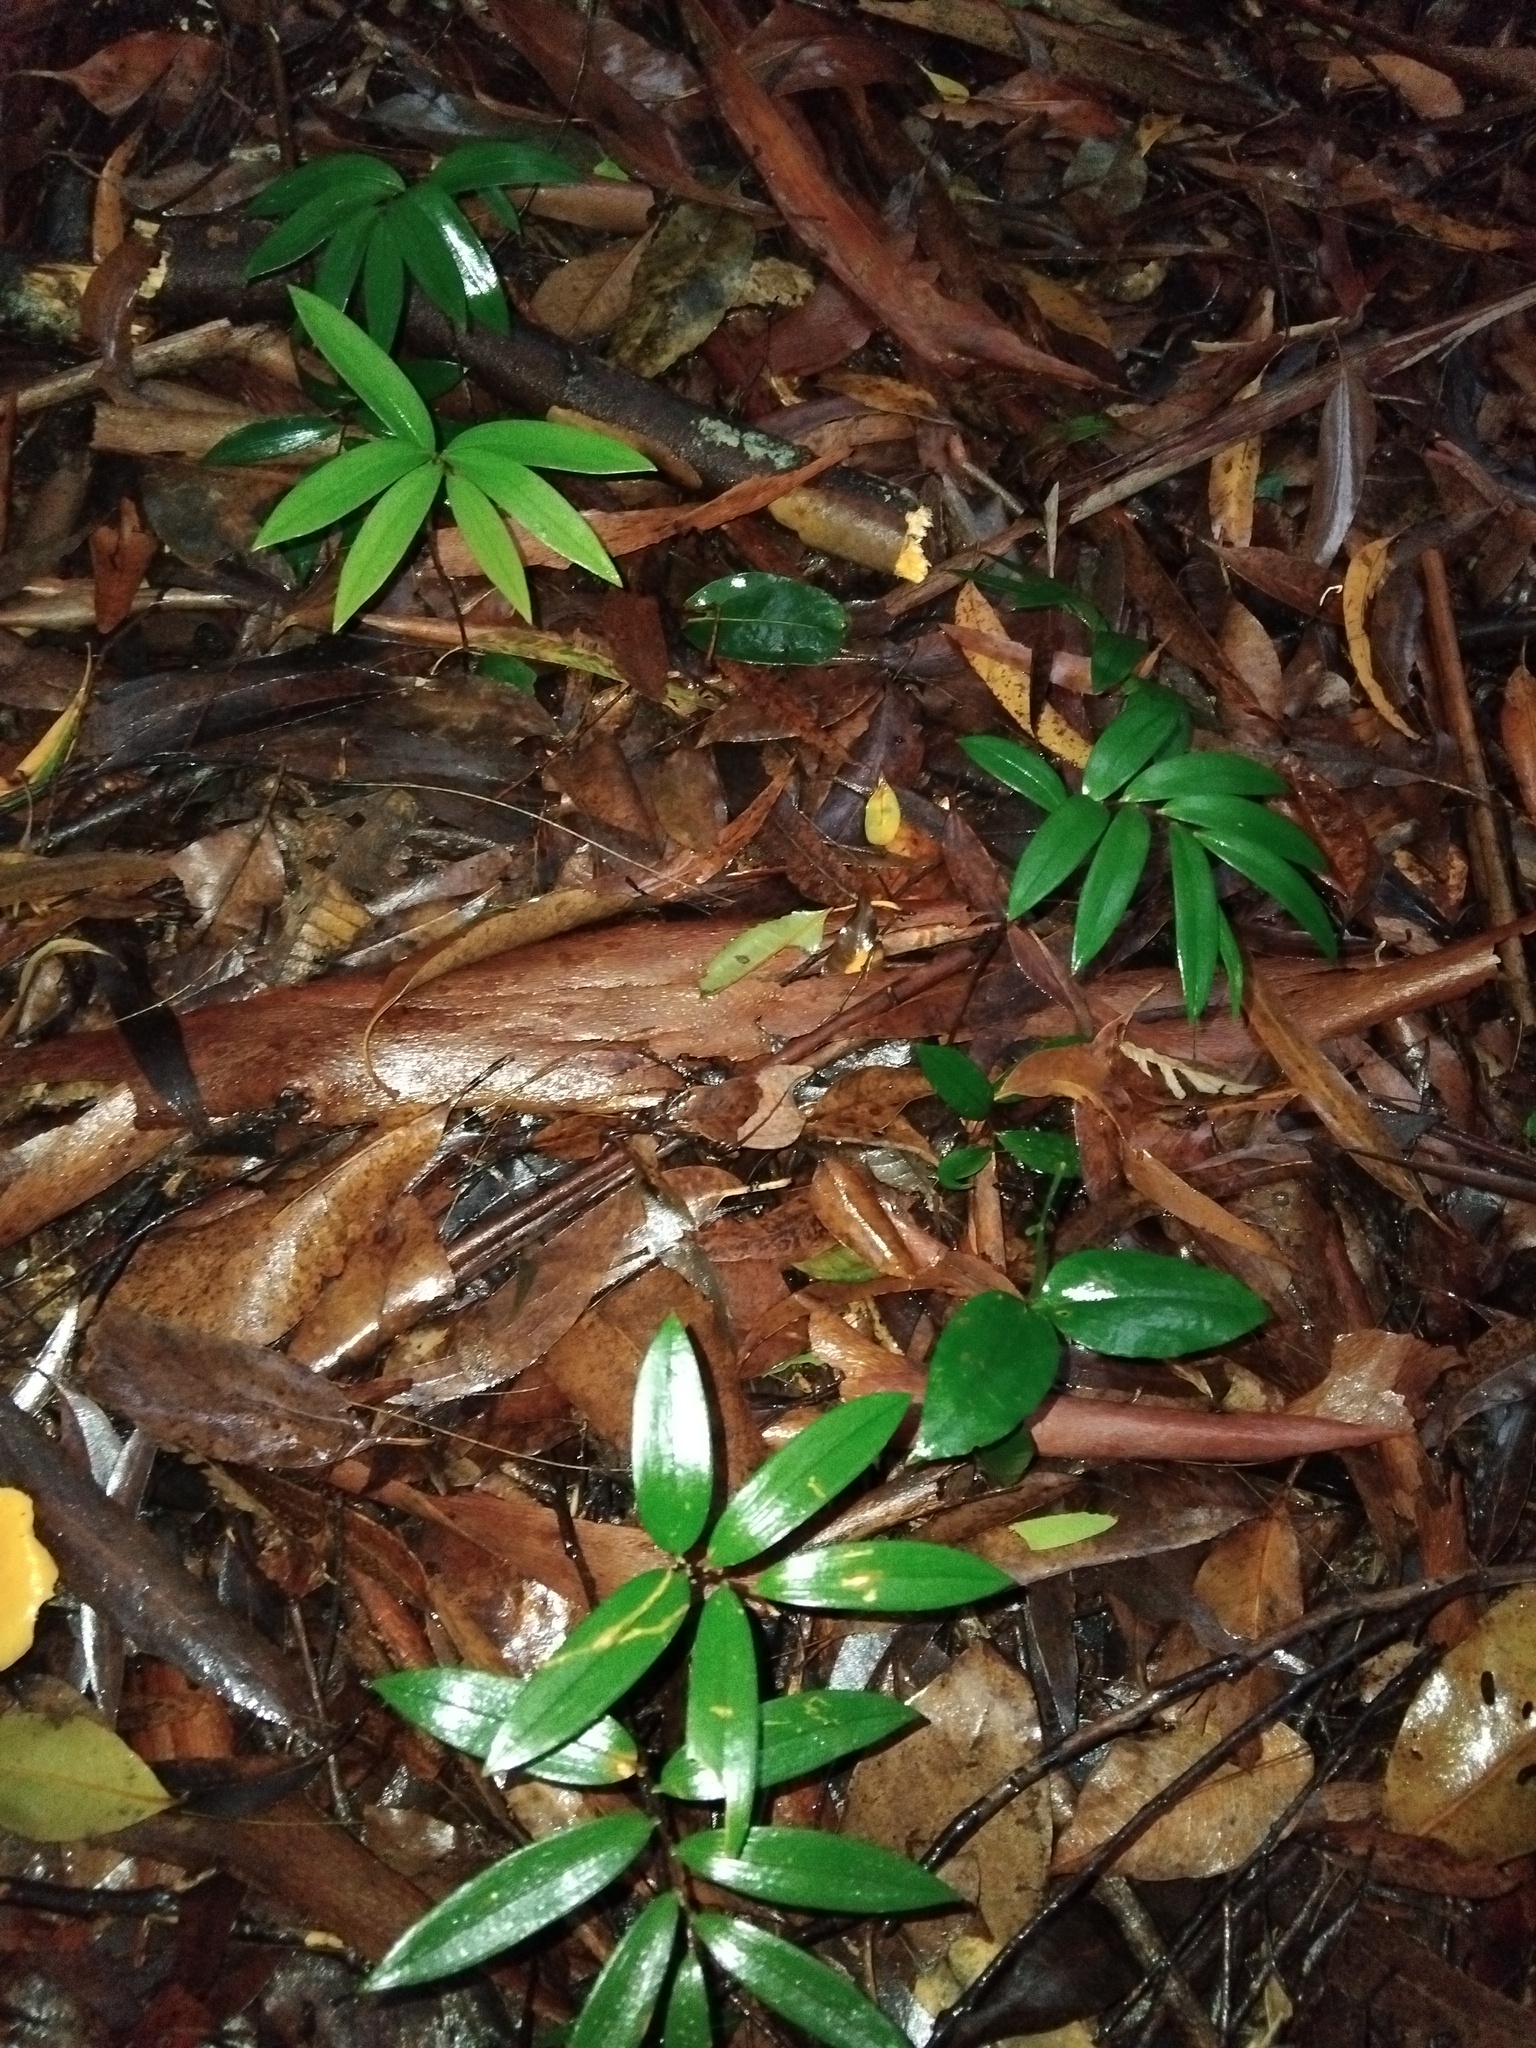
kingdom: Plantae
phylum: Tracheophyta
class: Liliopsida
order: Liliales
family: Alstroemeriaceae
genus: Drymophila
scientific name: Drymophila moorei
